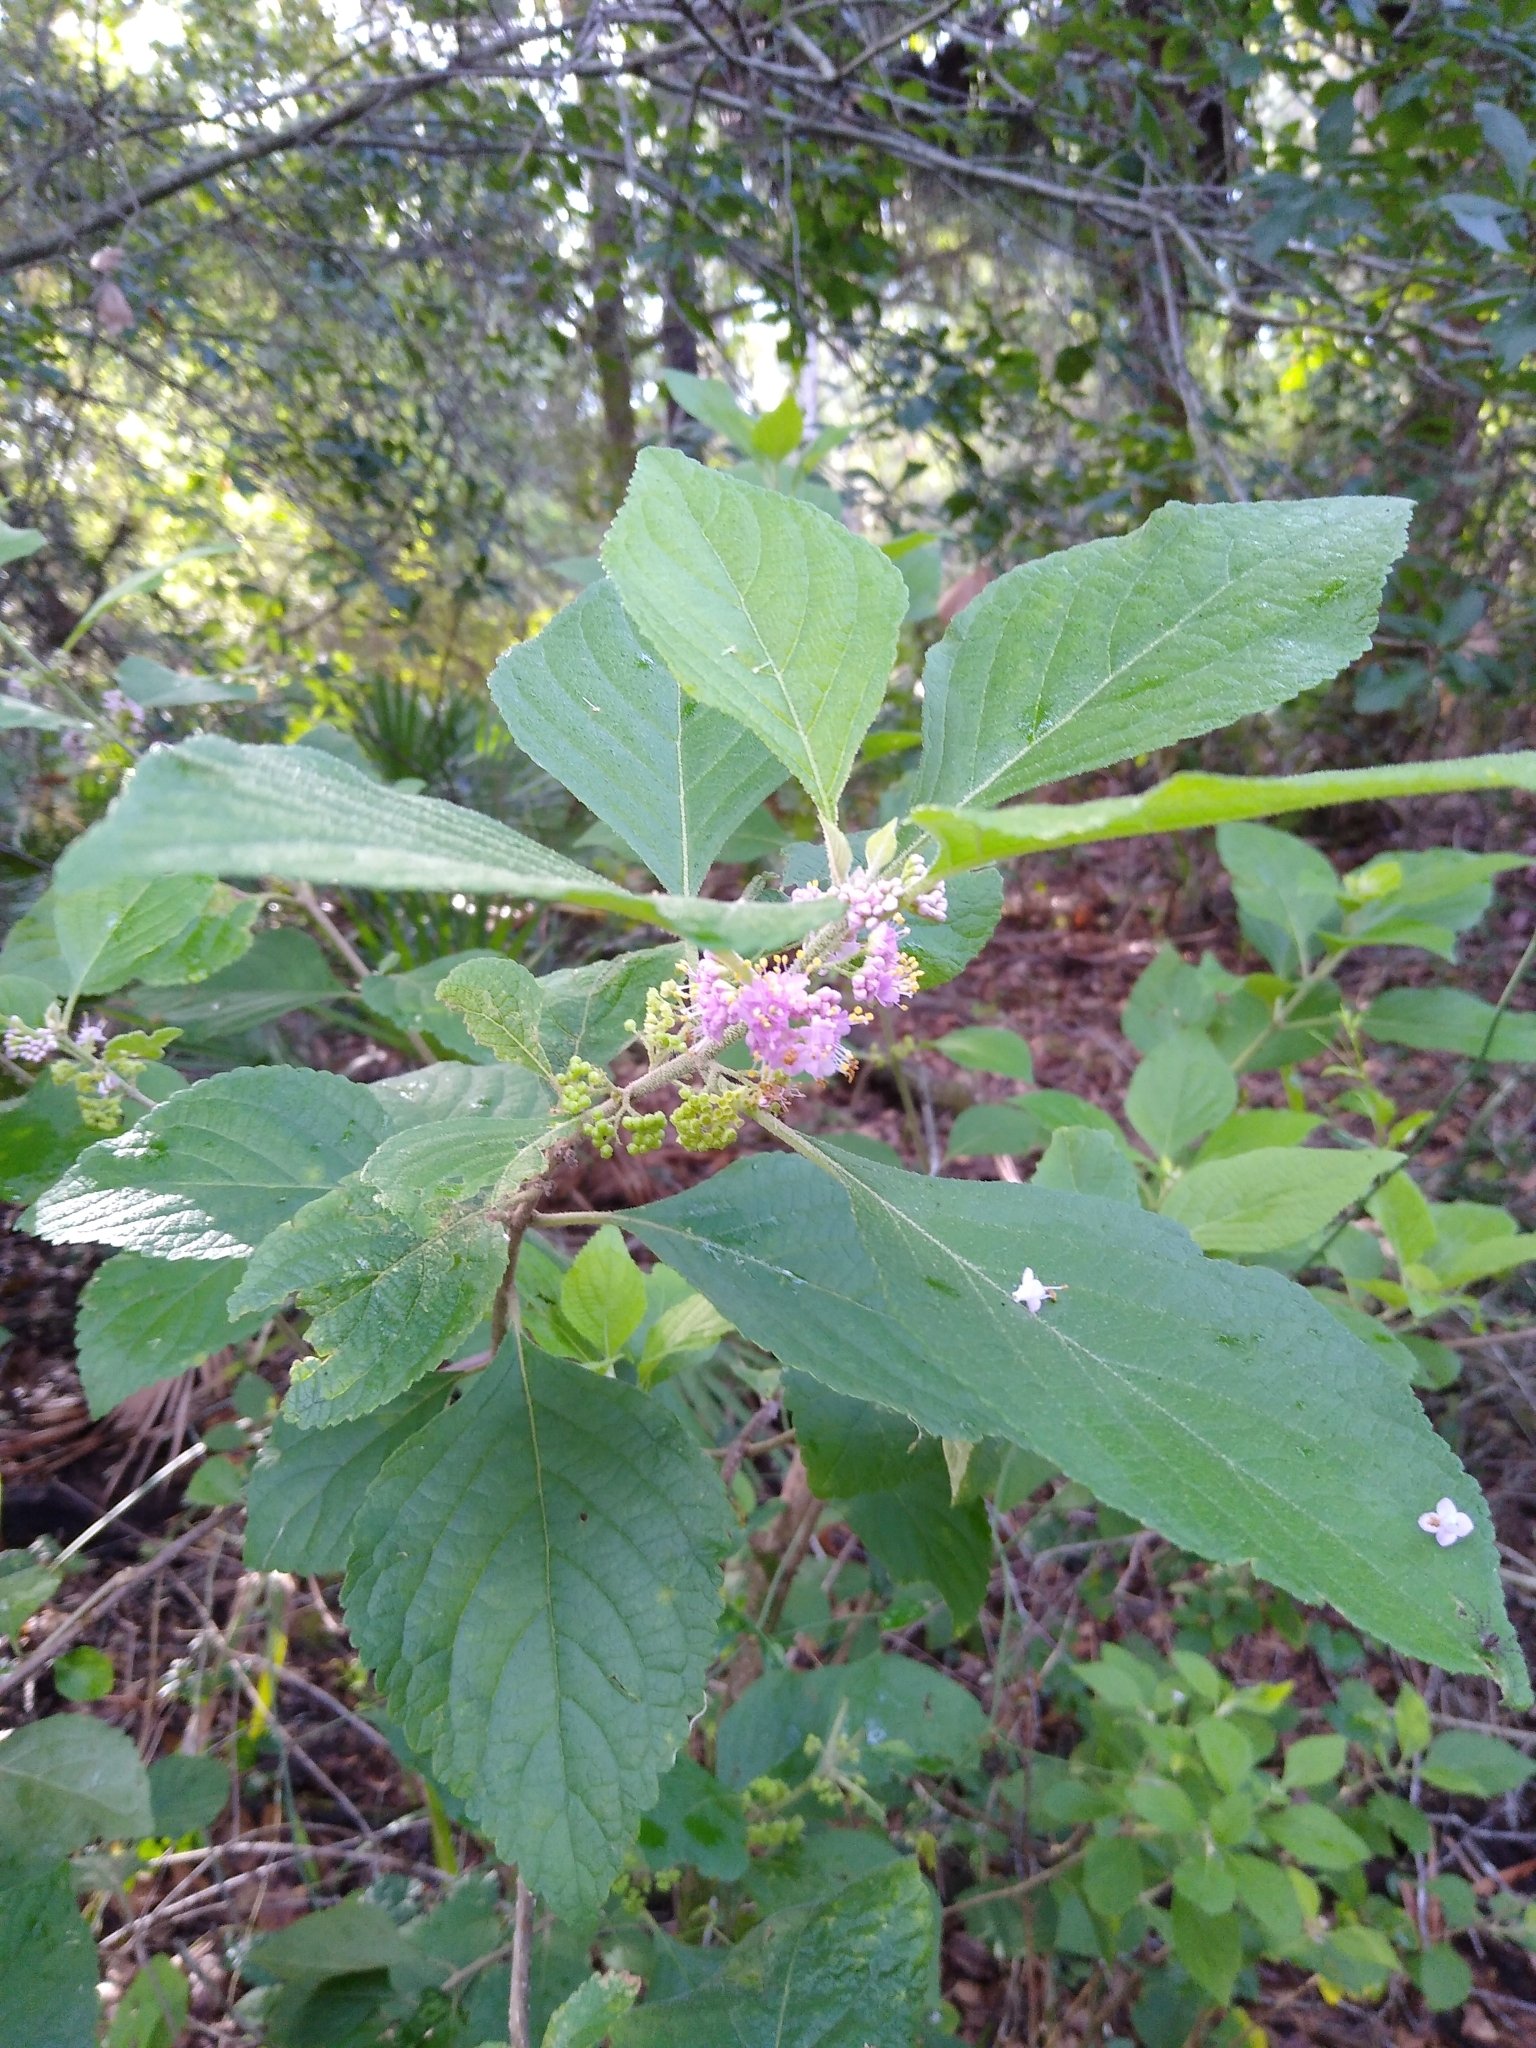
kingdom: Plantae
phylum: Tracheophyta
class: Magnoliopsida
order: Lamiales
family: Lamiaceae
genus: Callicarpa
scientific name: Callicarpa americana
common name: American beautyberry
